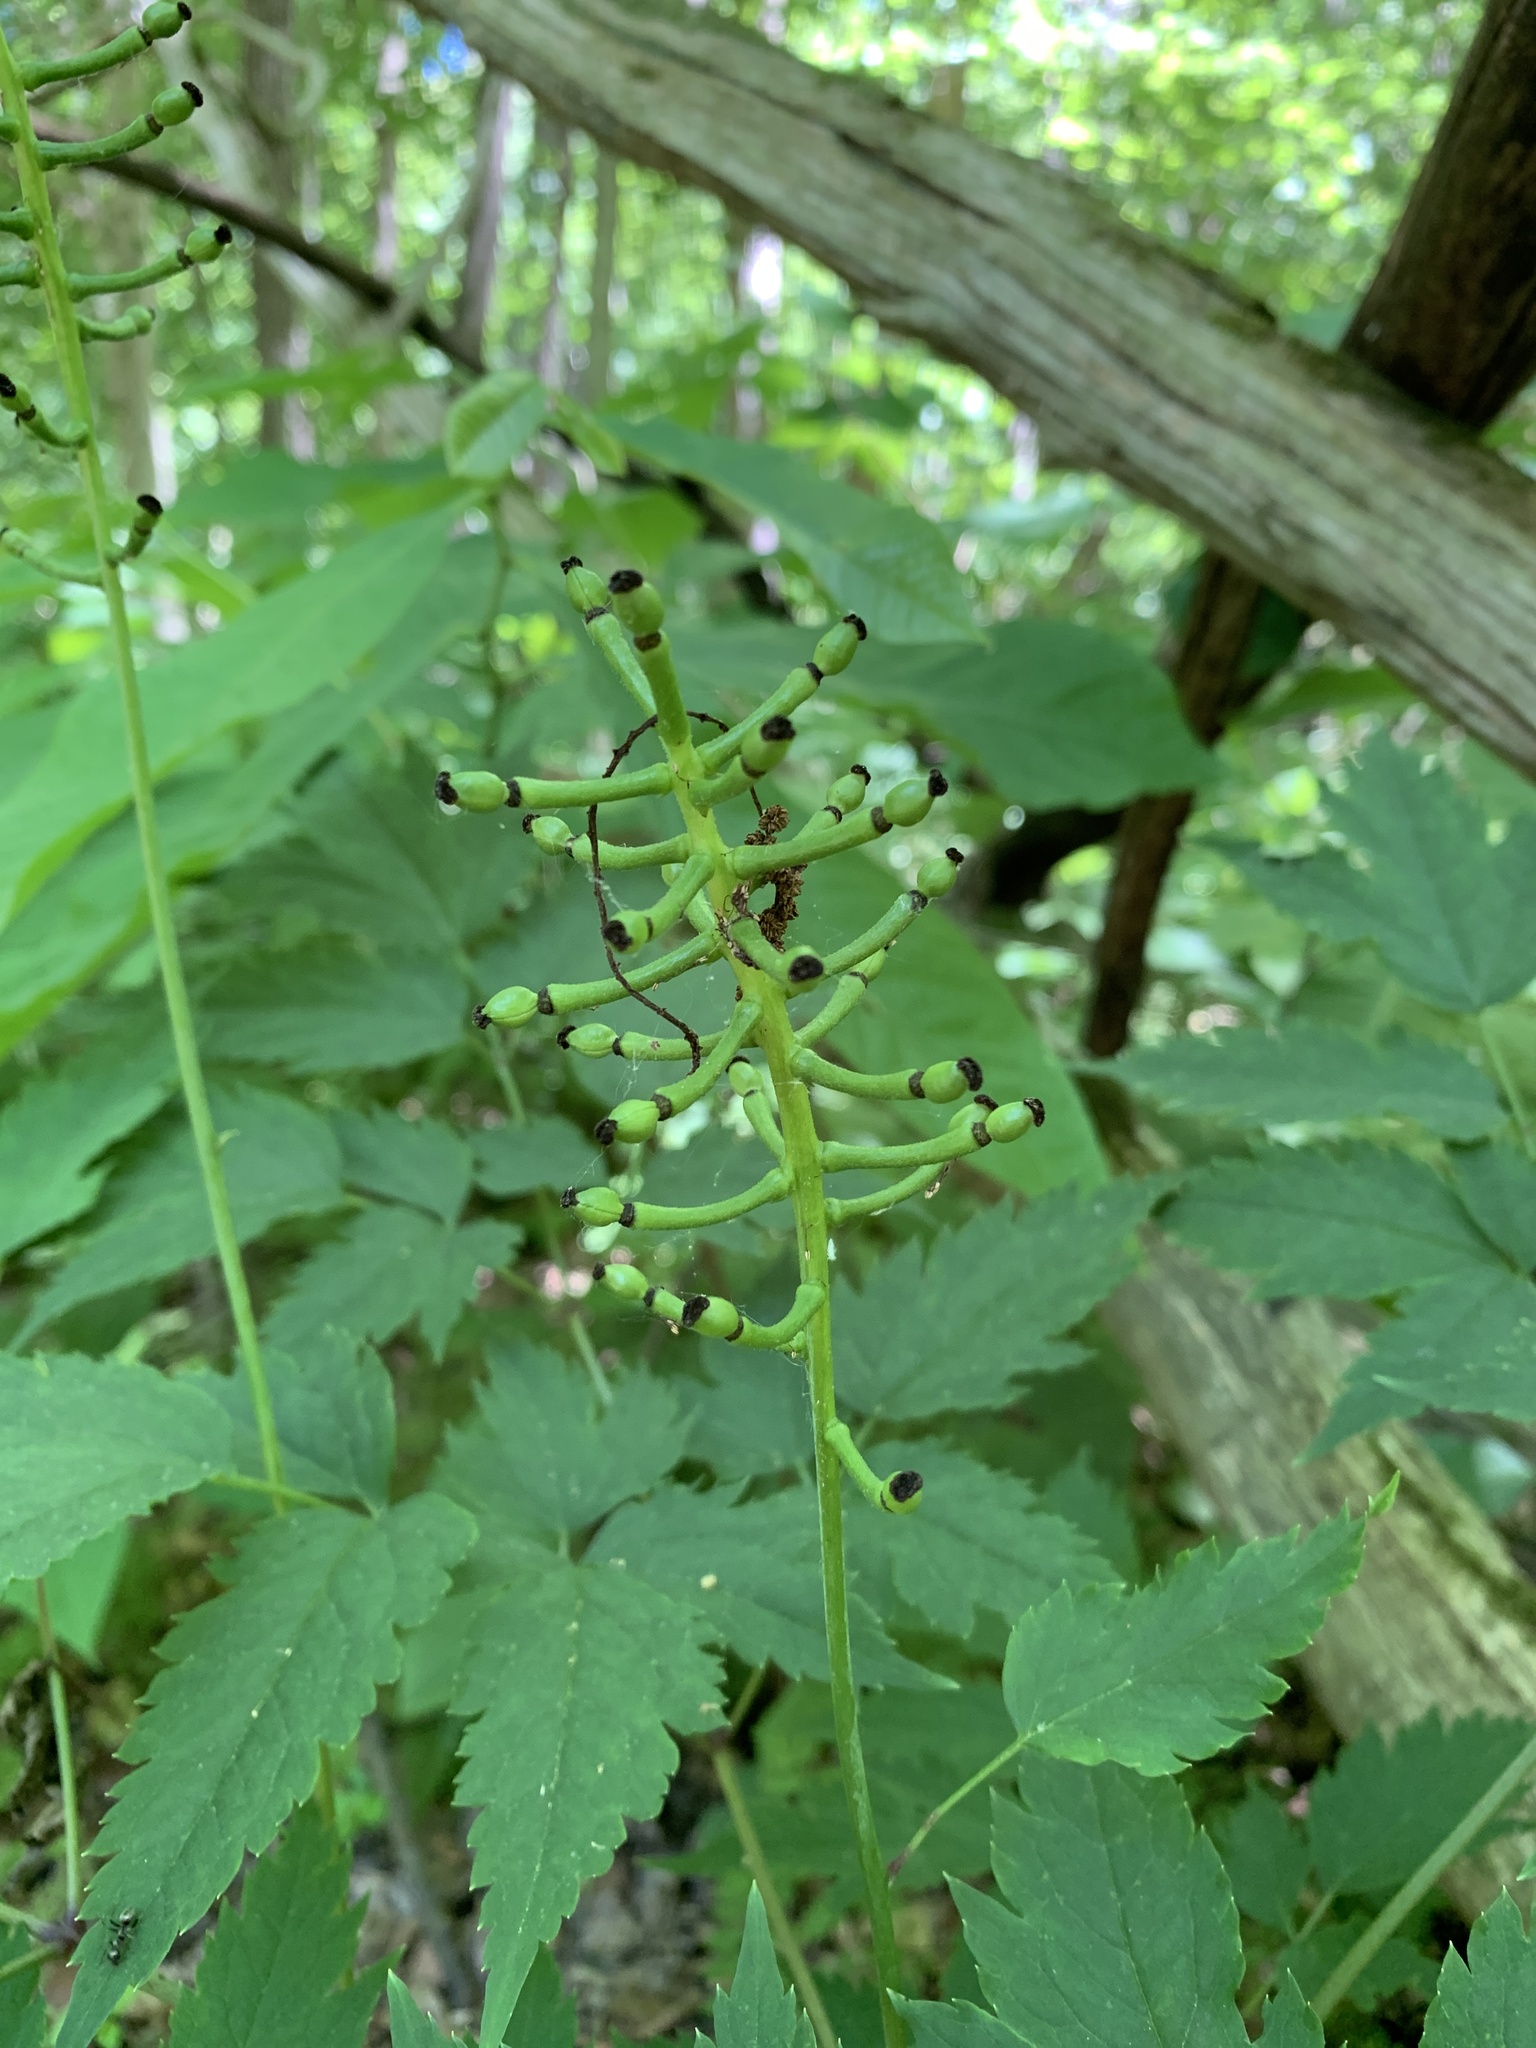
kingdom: Plantae
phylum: Tracheophyta
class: Magnoliopsida
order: Ranunculales
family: Ranunculaceae
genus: Actaea
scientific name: Actaea pachypoda
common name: Doll's-eyes
